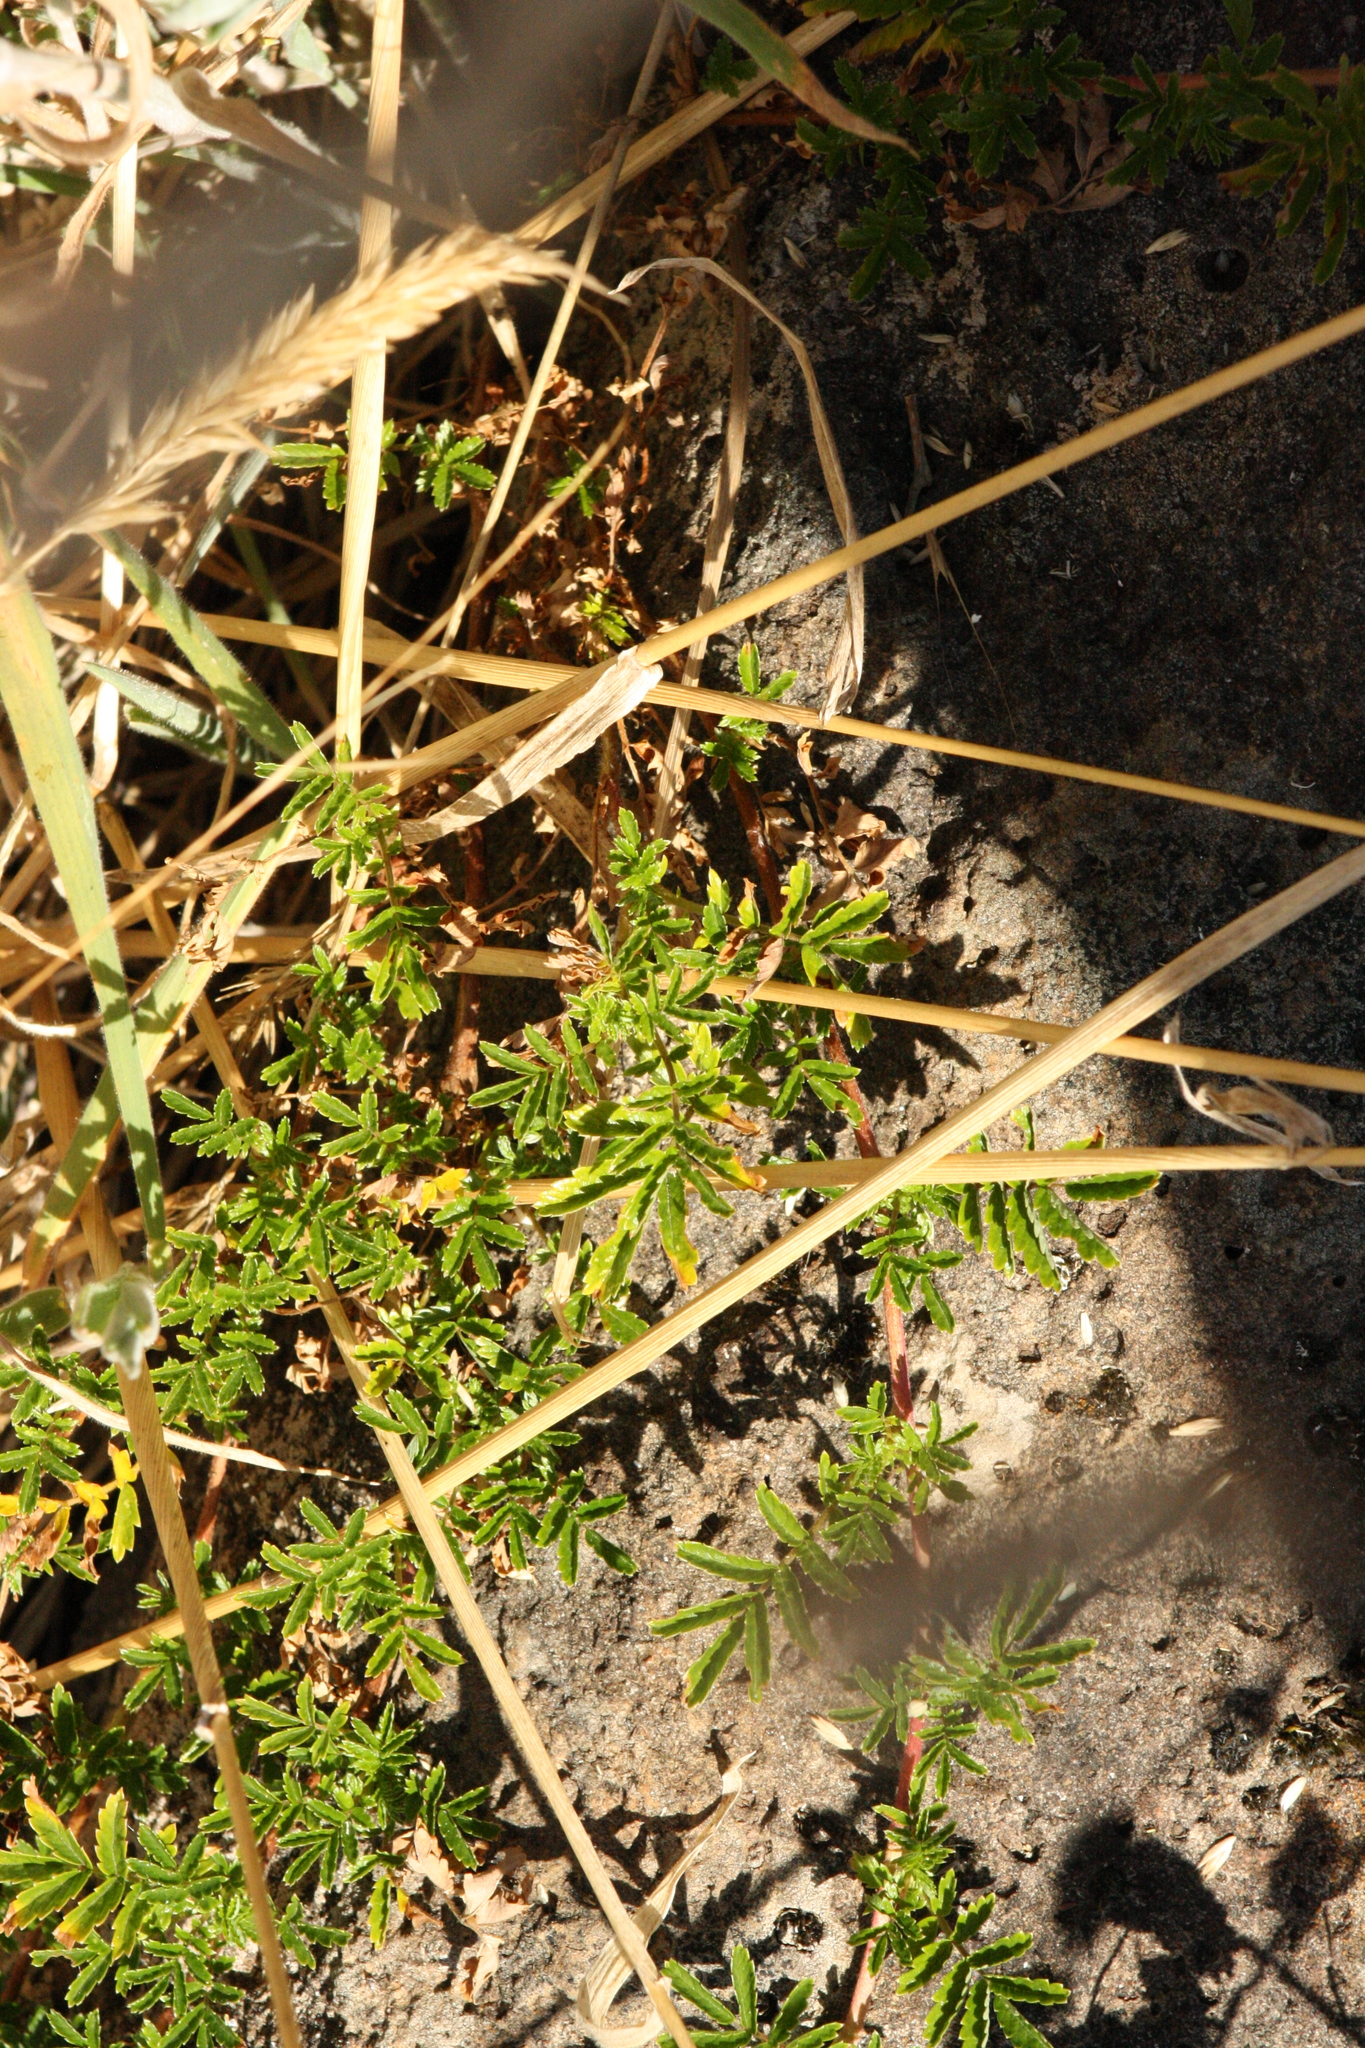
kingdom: Plantae
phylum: Tracheophyta
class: Magnoliopsida
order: Rosales
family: Rosaceae
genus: Acaena
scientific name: Acaena novae-zelandiae
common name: Pirri-pirri-bur
